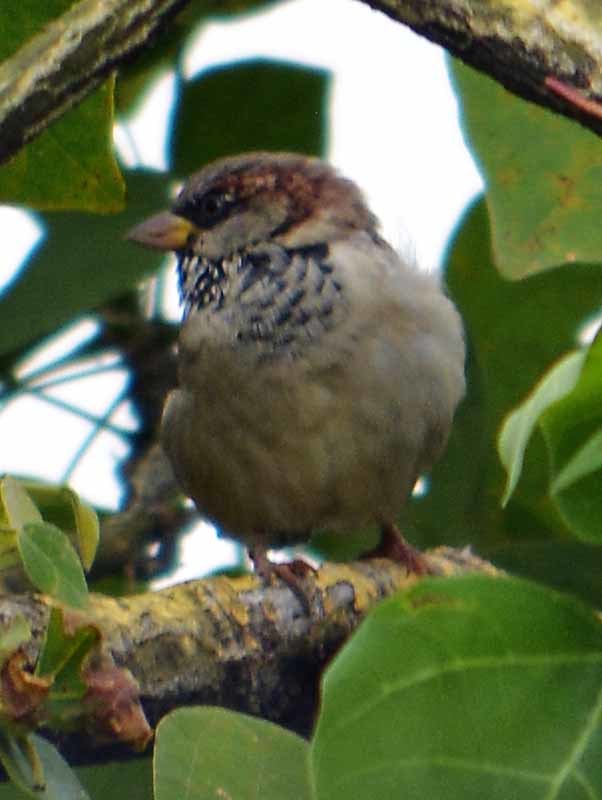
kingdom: Animalia
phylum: Chordata
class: Aves
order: Passeriformes
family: Passeridae
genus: Passer
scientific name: Passer domesticus
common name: House sparrow
